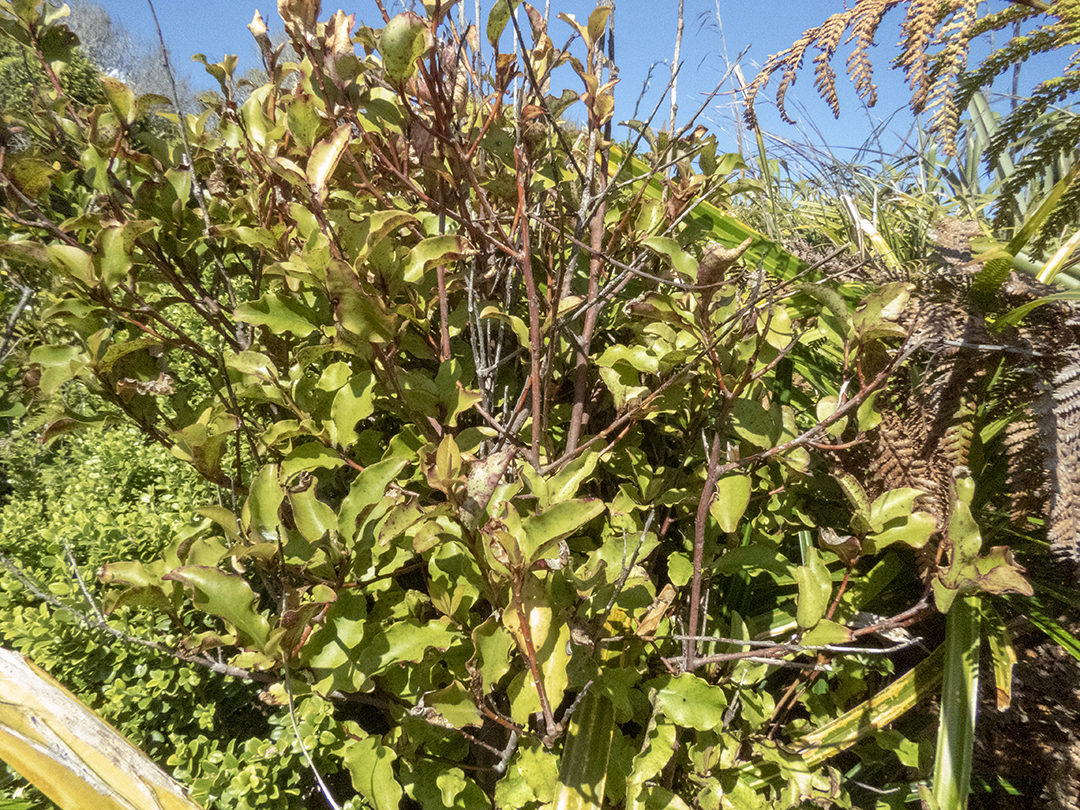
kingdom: Plantae
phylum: Tracheophyta
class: Magnoliopsida
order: Ericales
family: Primulaceae
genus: Myrsine
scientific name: Myrsine australis
